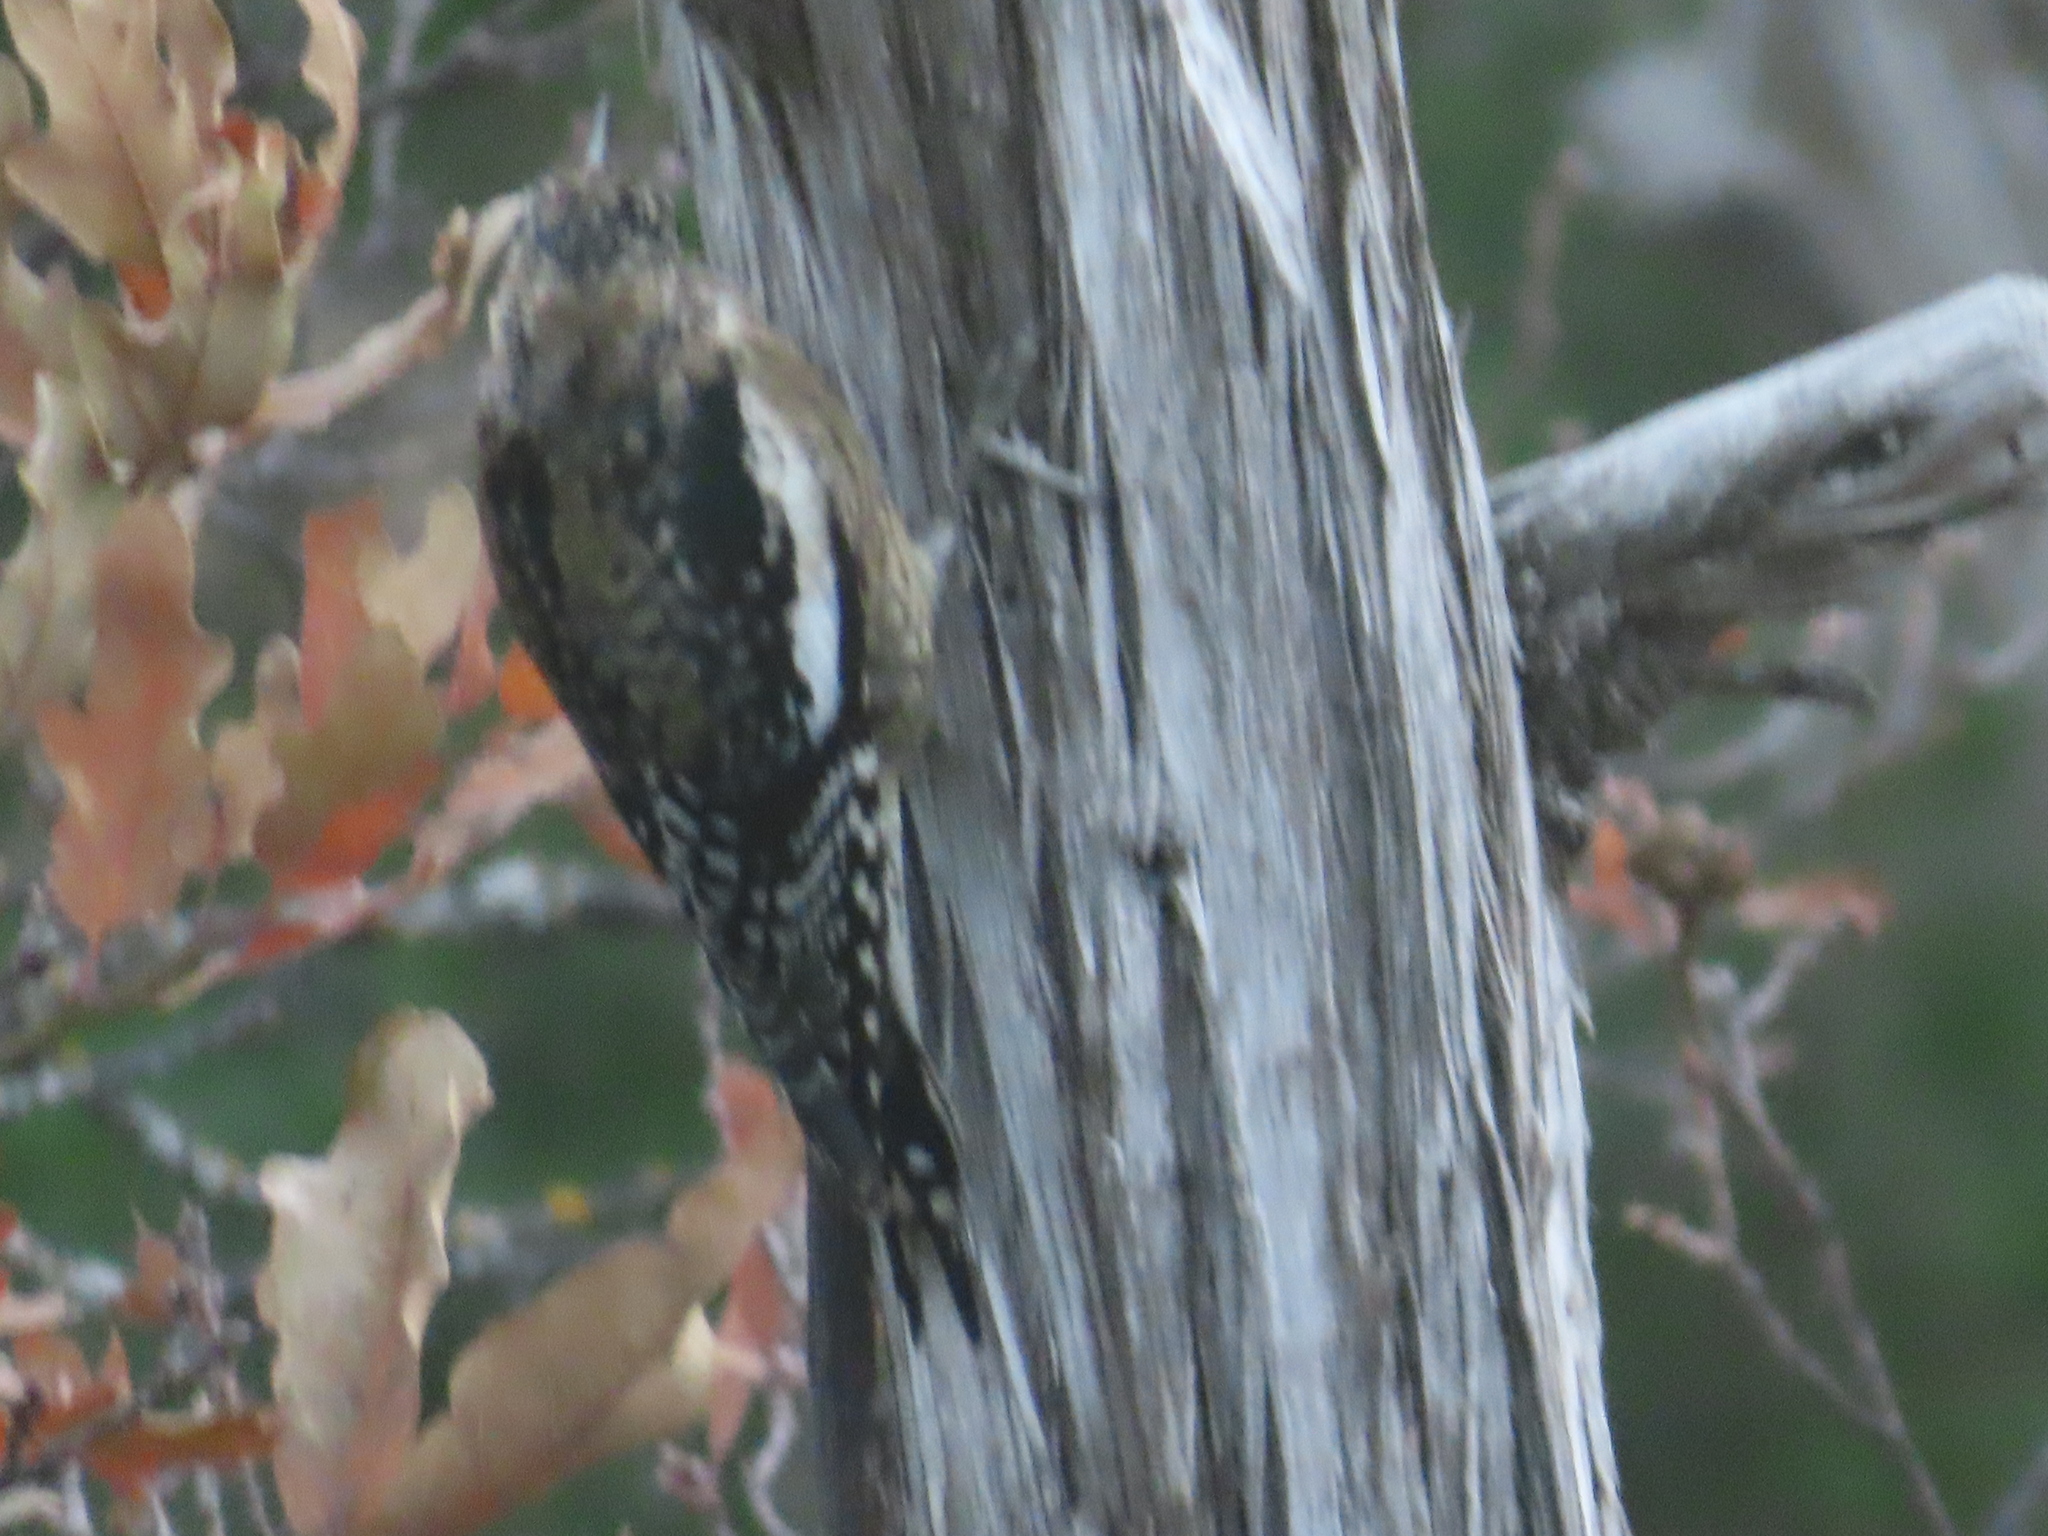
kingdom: Animalia
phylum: Chordata
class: Aves
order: Piciformes
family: Picidae
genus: Sphyrapicus
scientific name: Sphyrapicus varius
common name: Yellow-bellied sapsucker
